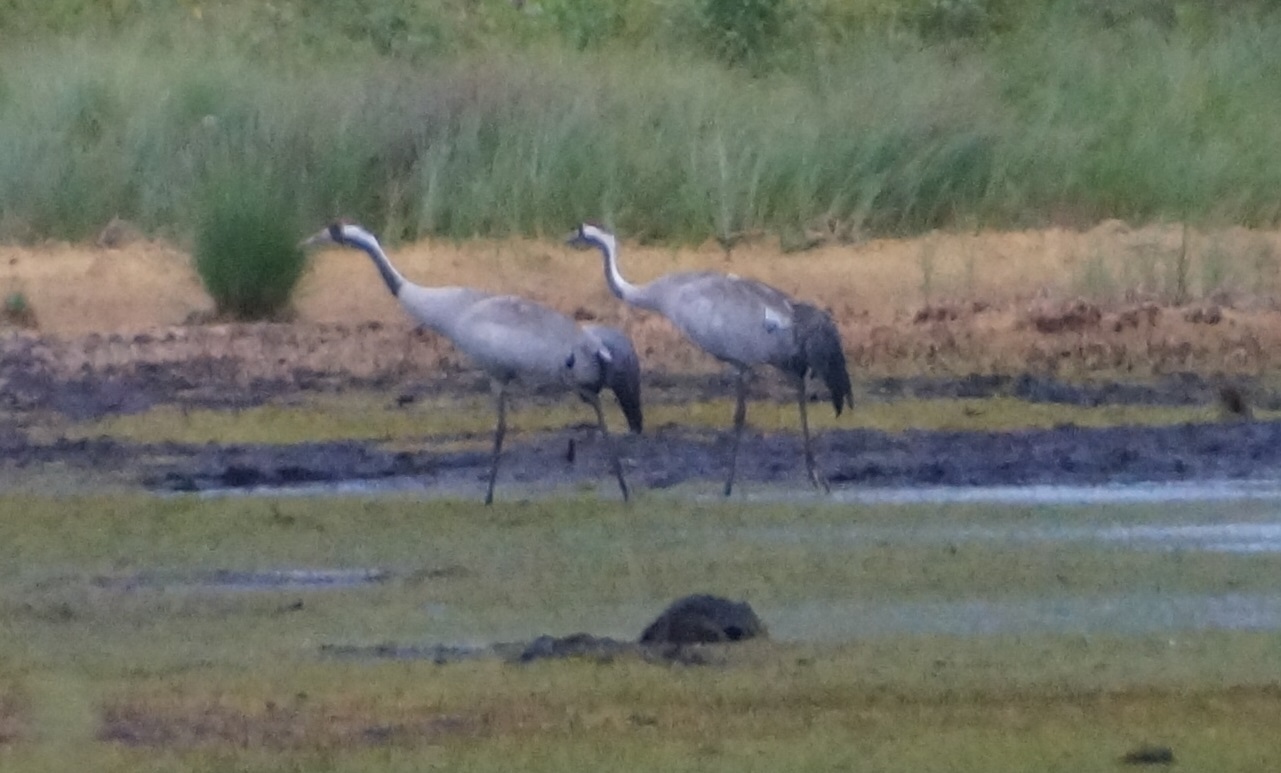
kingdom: Animalia
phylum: Chordata
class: Aves
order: Gruiformes
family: Gruidae
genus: Grus
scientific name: Grus grus
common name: Common crane
